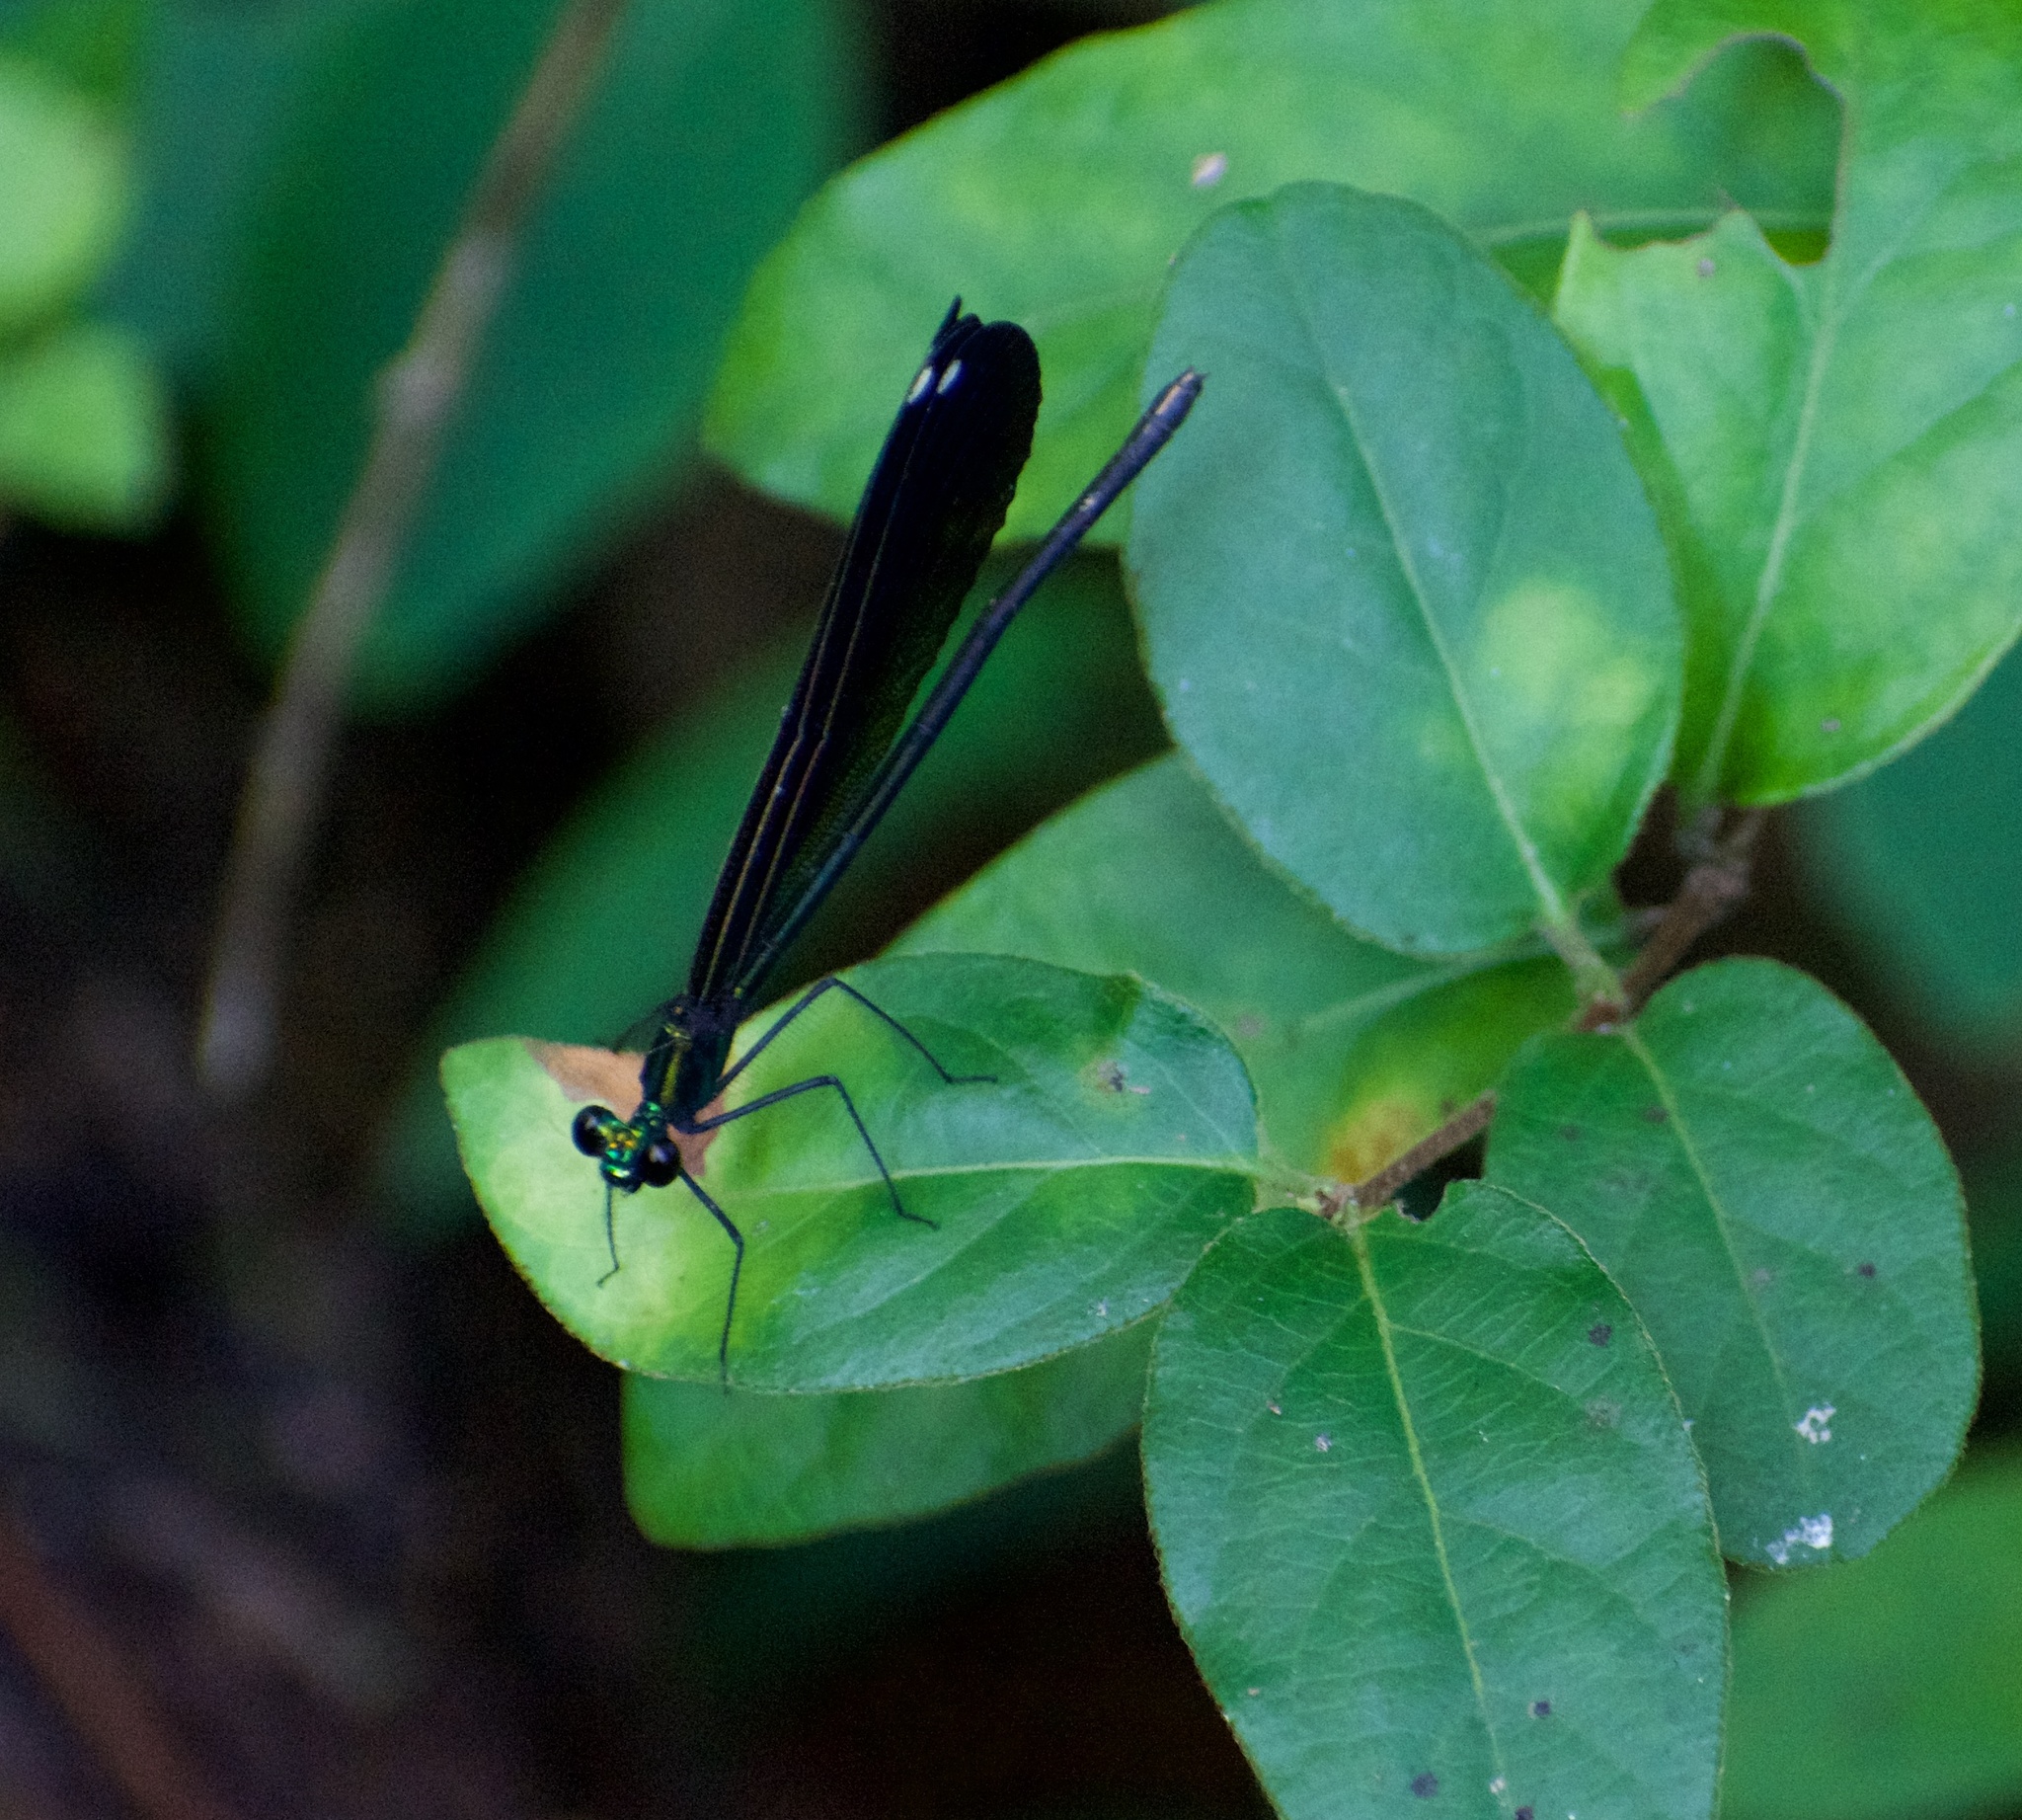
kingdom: Animalia
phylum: Arthropoda
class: Insecta
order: Odonata
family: Calopterygidae
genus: Calopteryx
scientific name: Calopteryx maculata
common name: Ebony jewelwing
